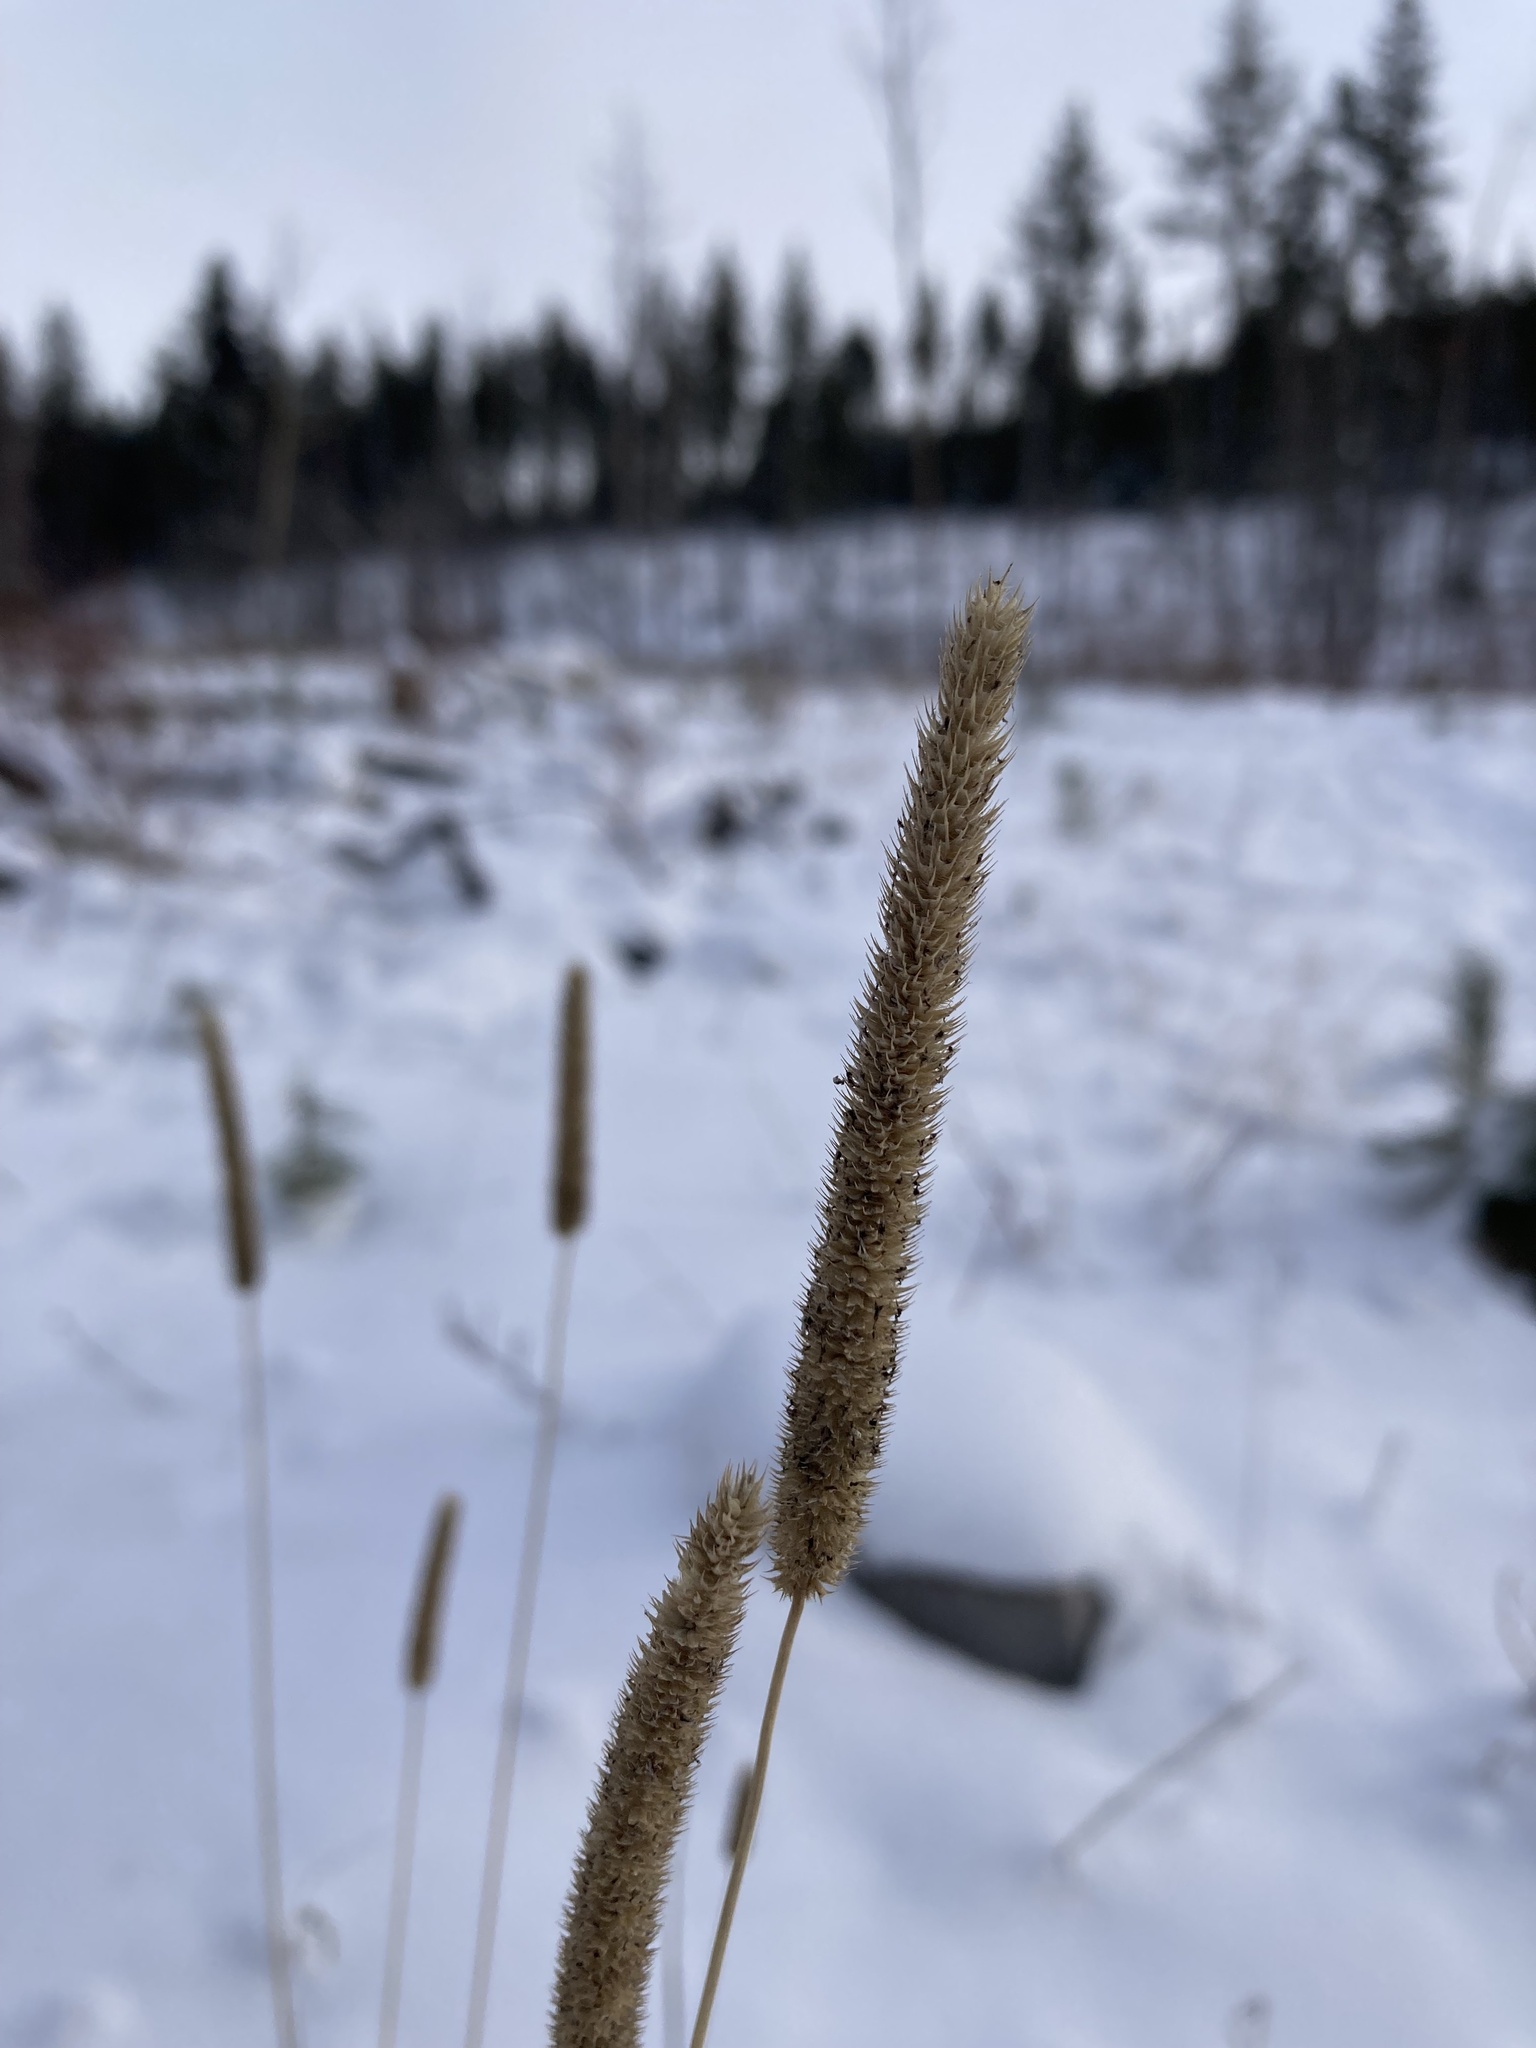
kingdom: Plantae
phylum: Tracheophyta
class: Liliopsida
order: Poales
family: Poaceae
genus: Phleum
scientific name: Phleum pratense
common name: Timothy grass
